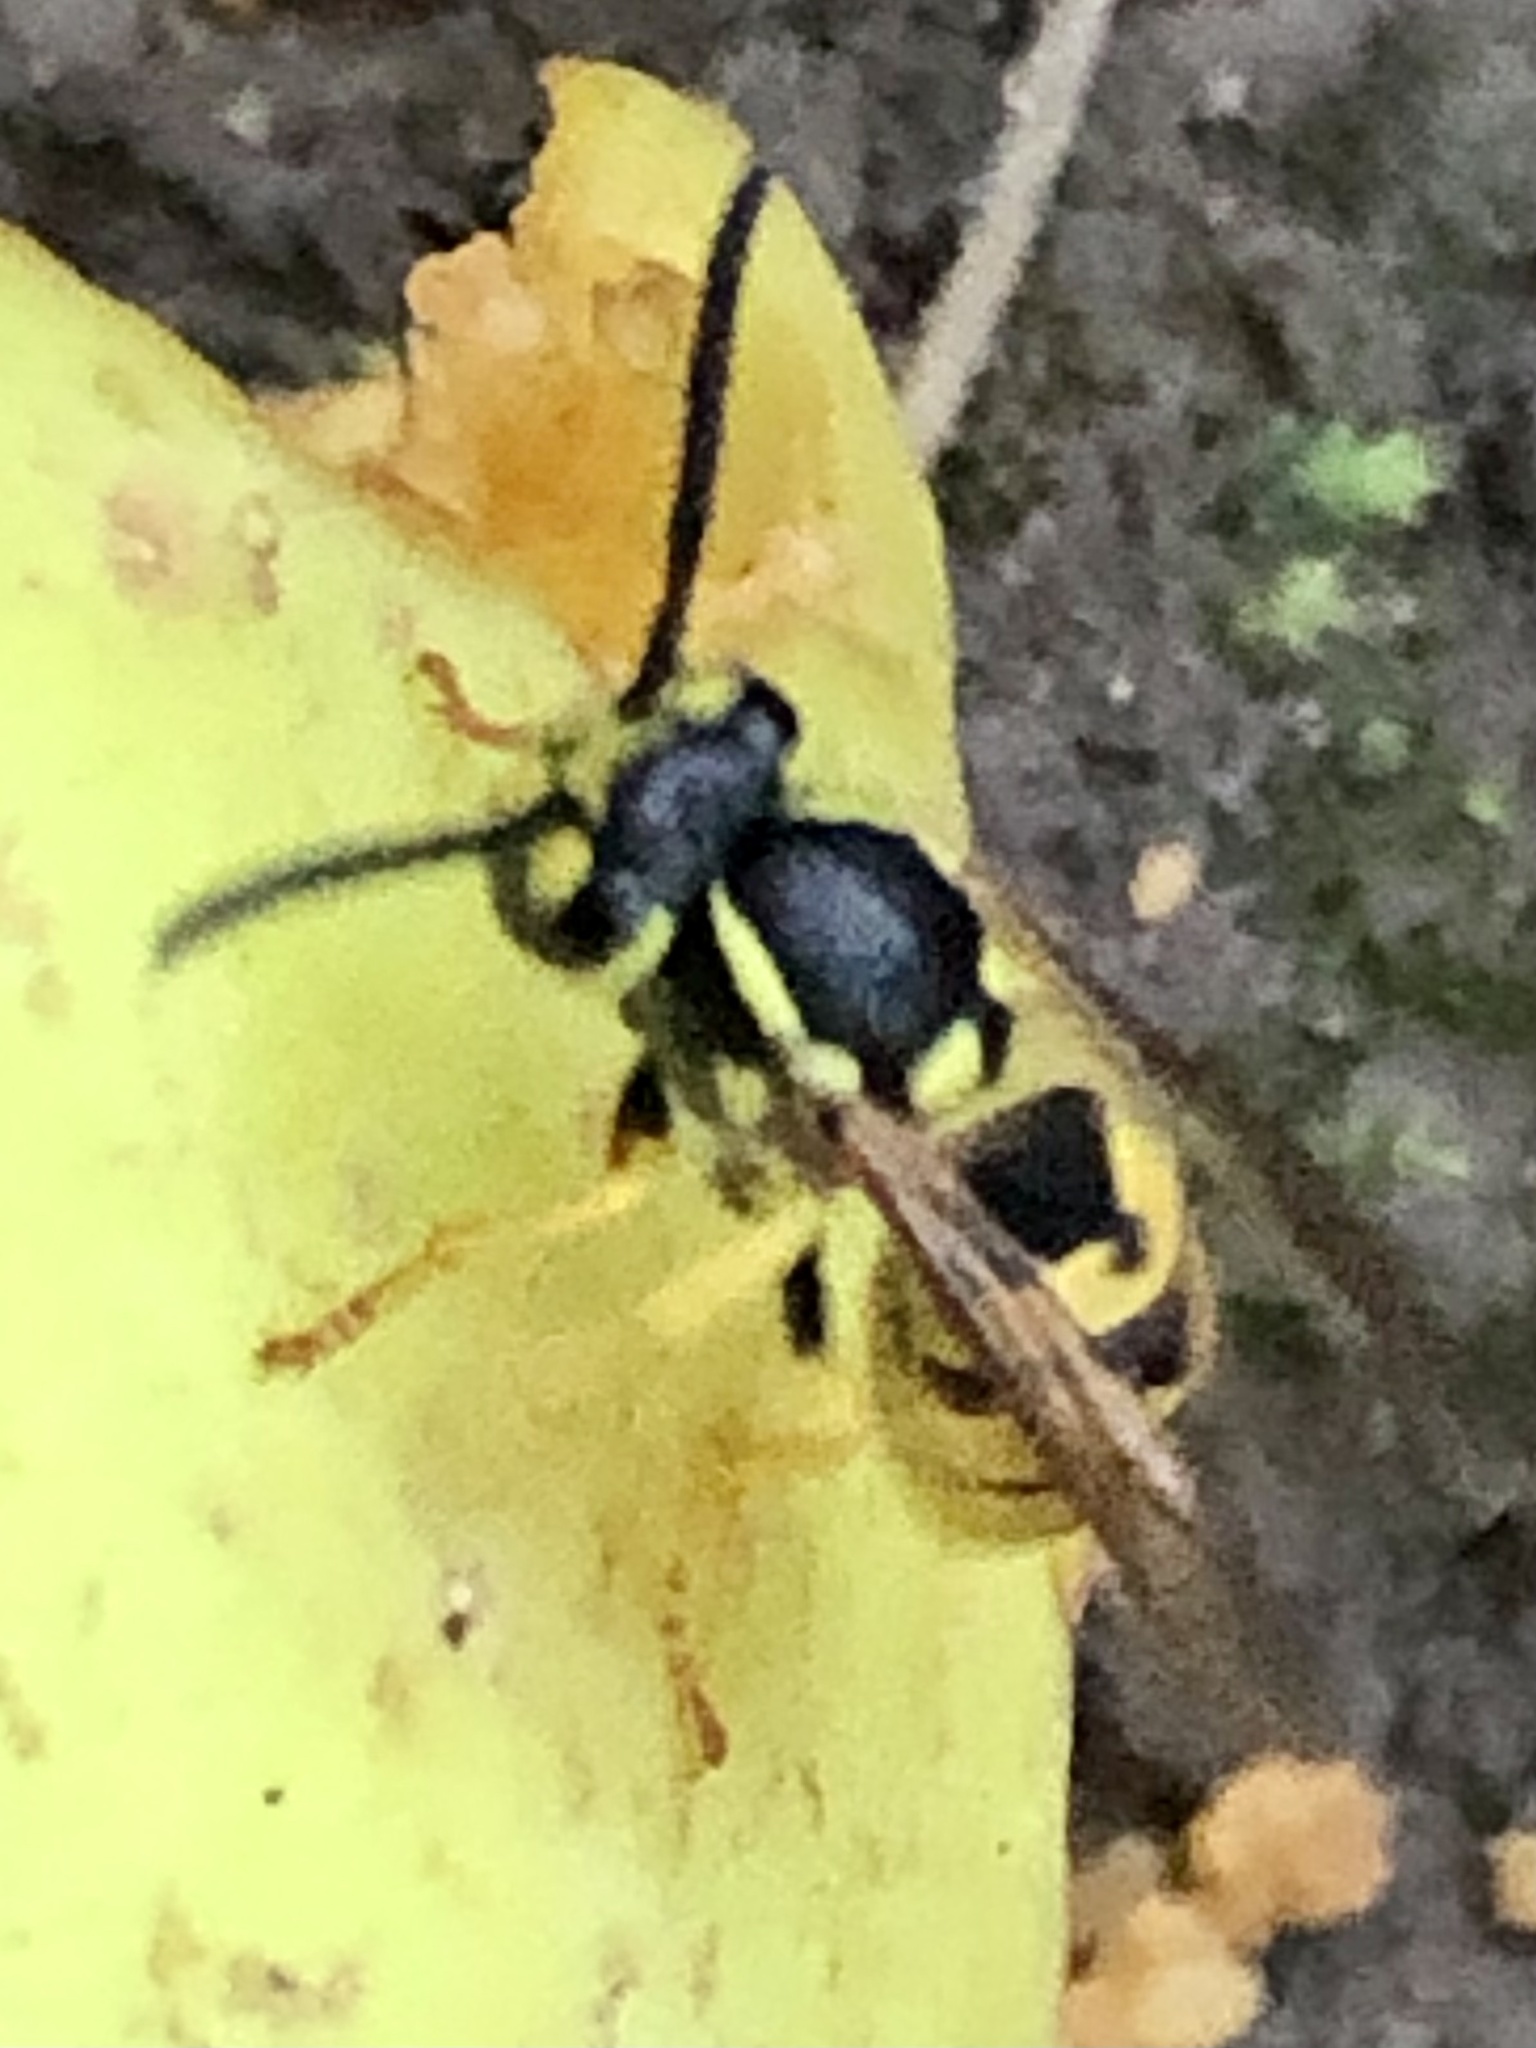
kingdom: Animalia
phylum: Arthropoda
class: Insecta
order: Hymenoptera
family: Vespidae
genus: Vespula
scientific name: Vespula germanica
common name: German wasp
